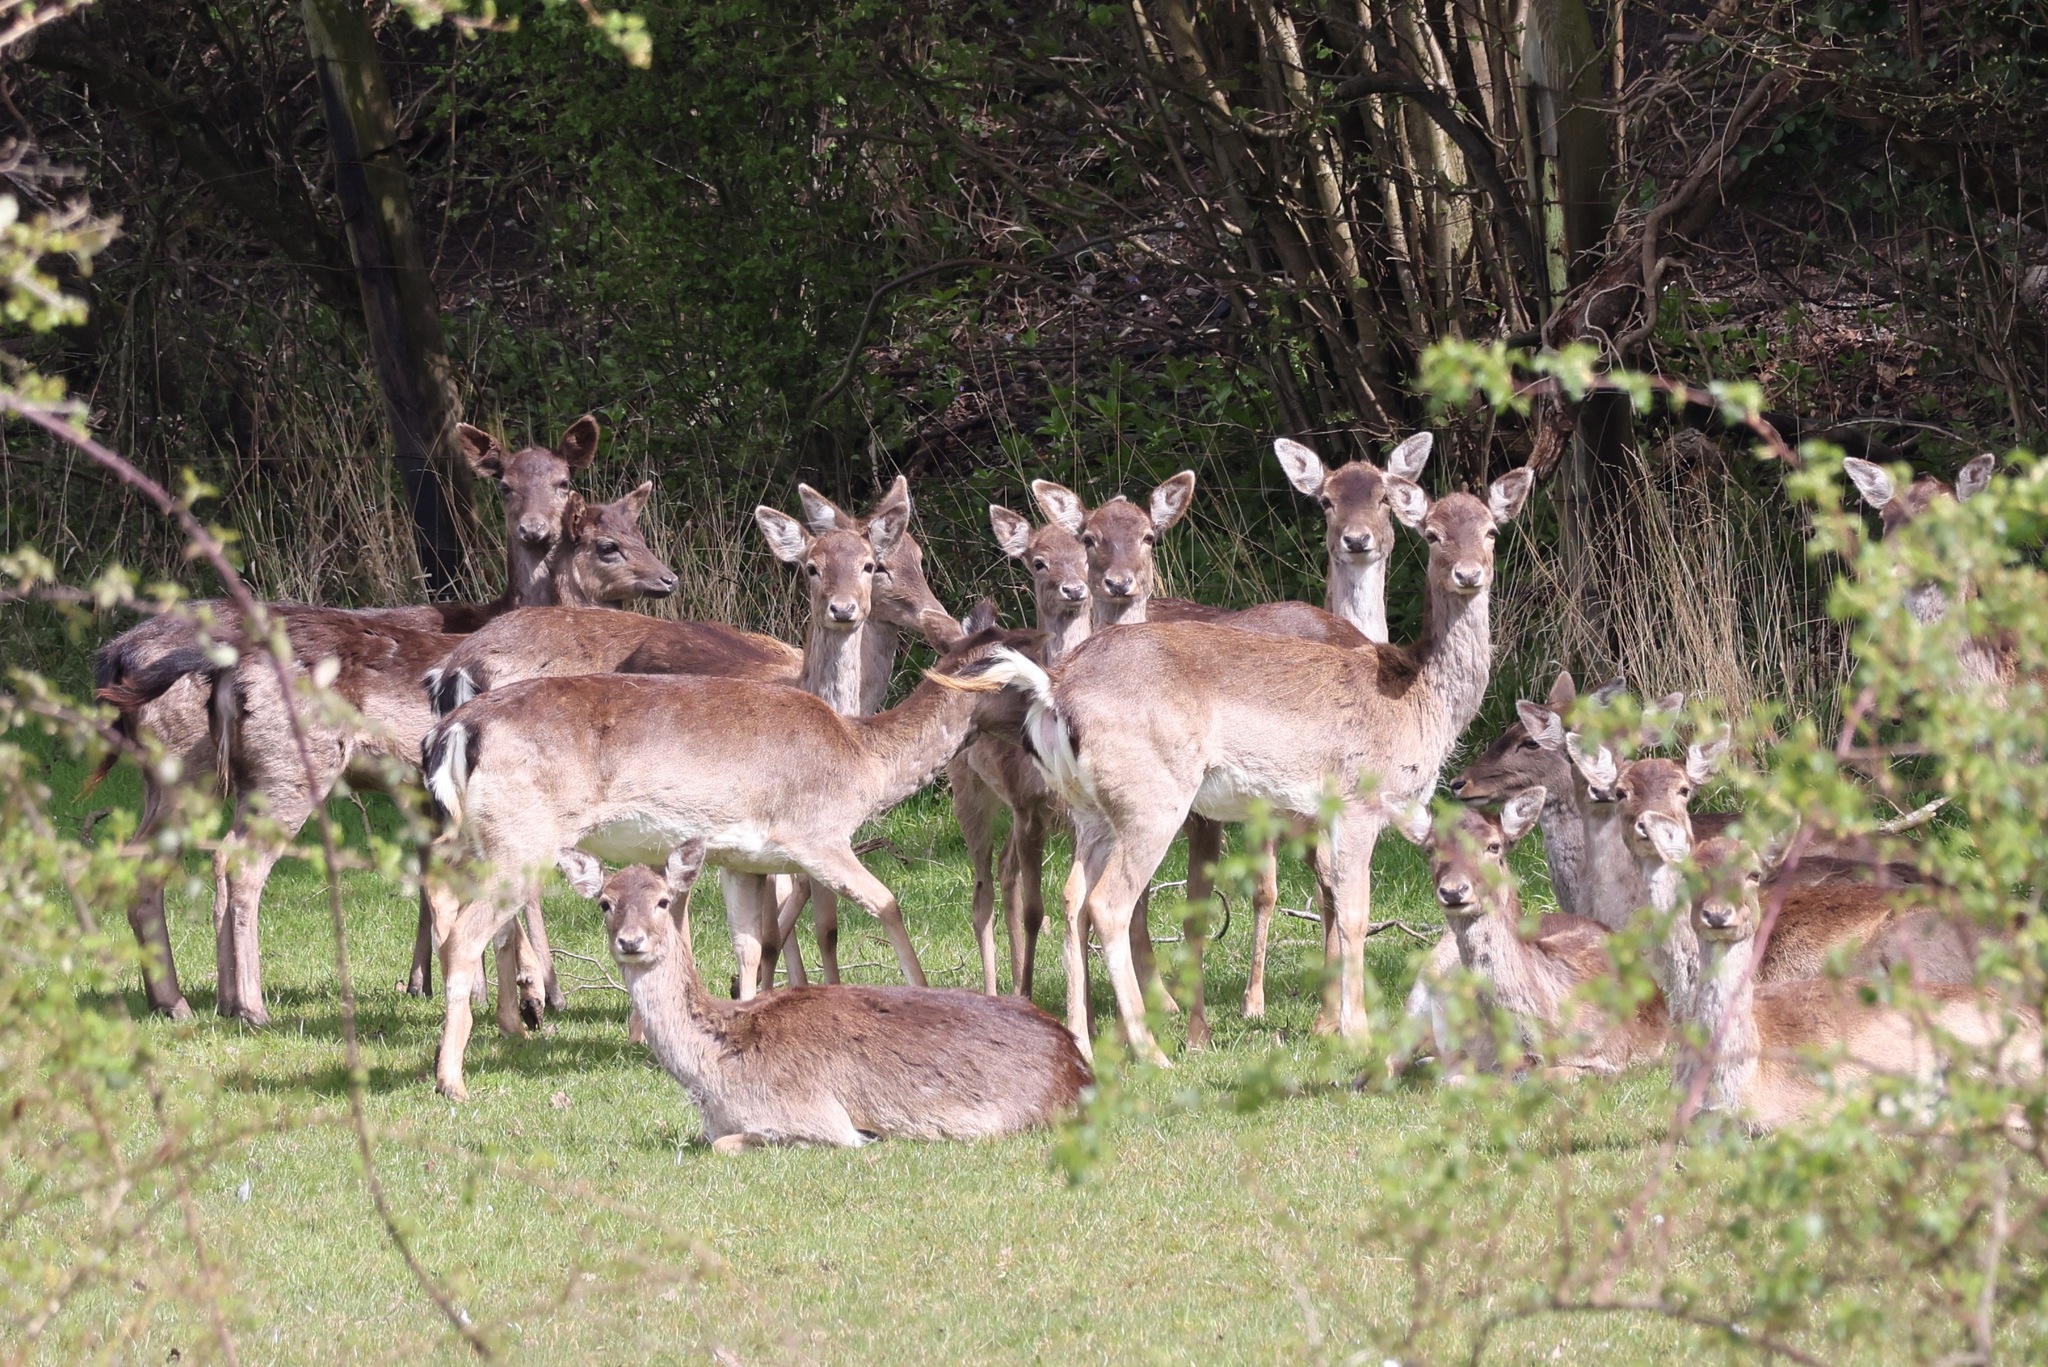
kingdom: Animalia
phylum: Chordata
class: Mammalia
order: Artiodactyla
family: Cervidae
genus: Dama
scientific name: Dama dama
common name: Fallow deer
